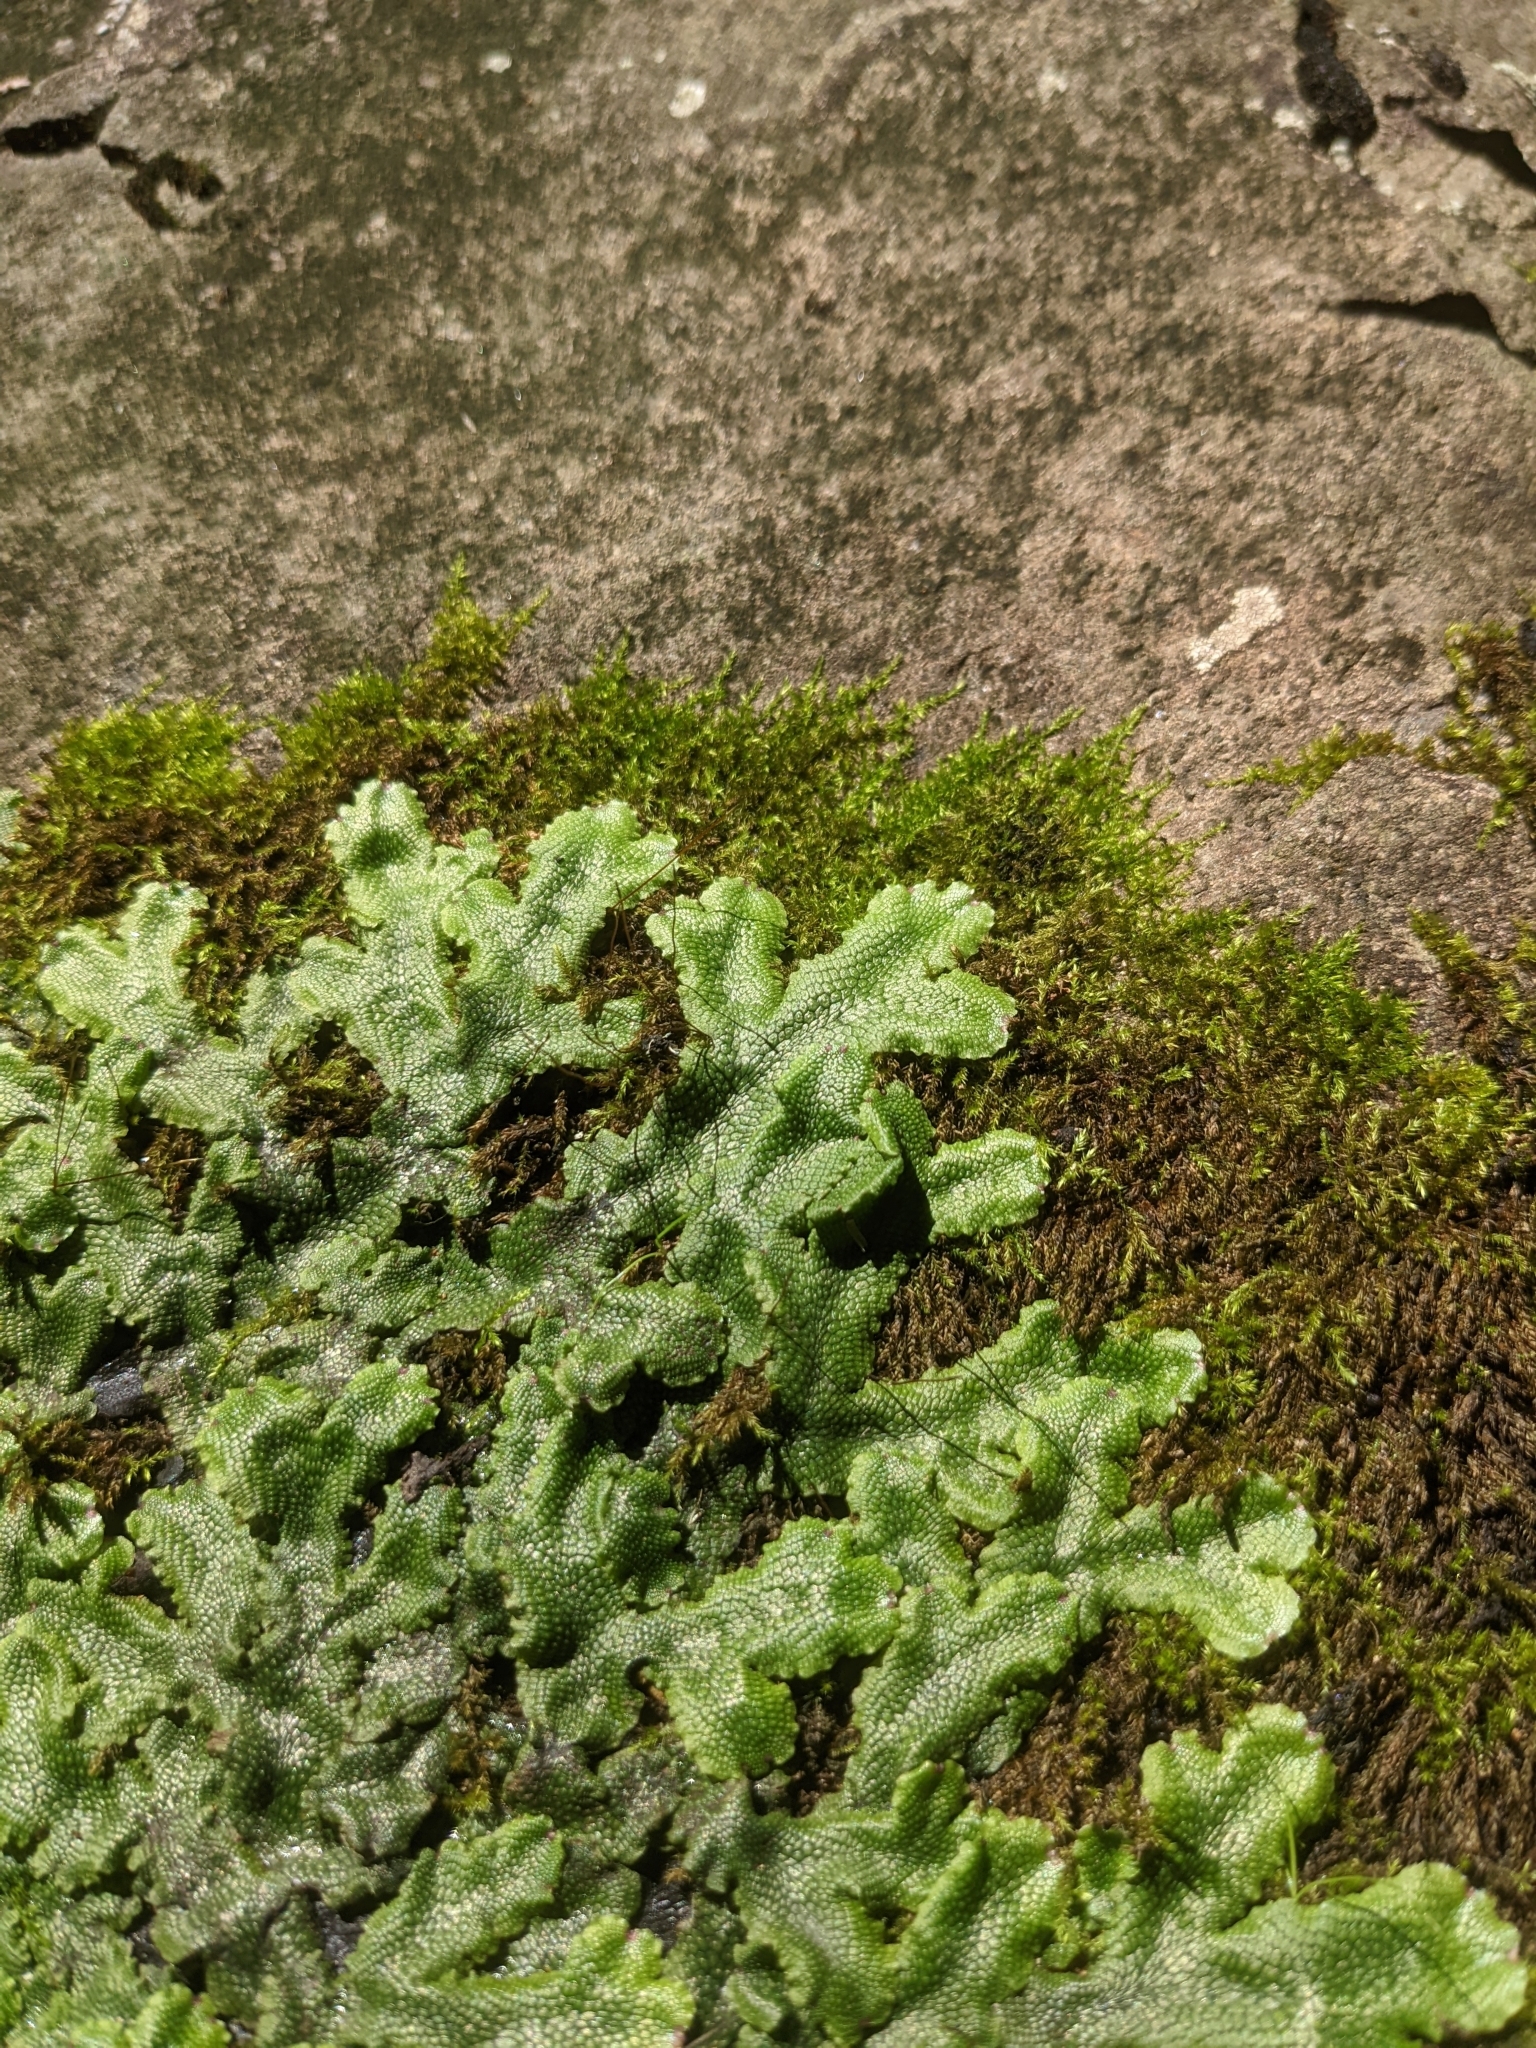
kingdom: Plantae
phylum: Marchantiophyta
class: Marchantiopsida
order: Marchantiales
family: Conocephalaceae
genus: Conocephalum
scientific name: Conocephalum salebrosum
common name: Cat-tongue liverwort
